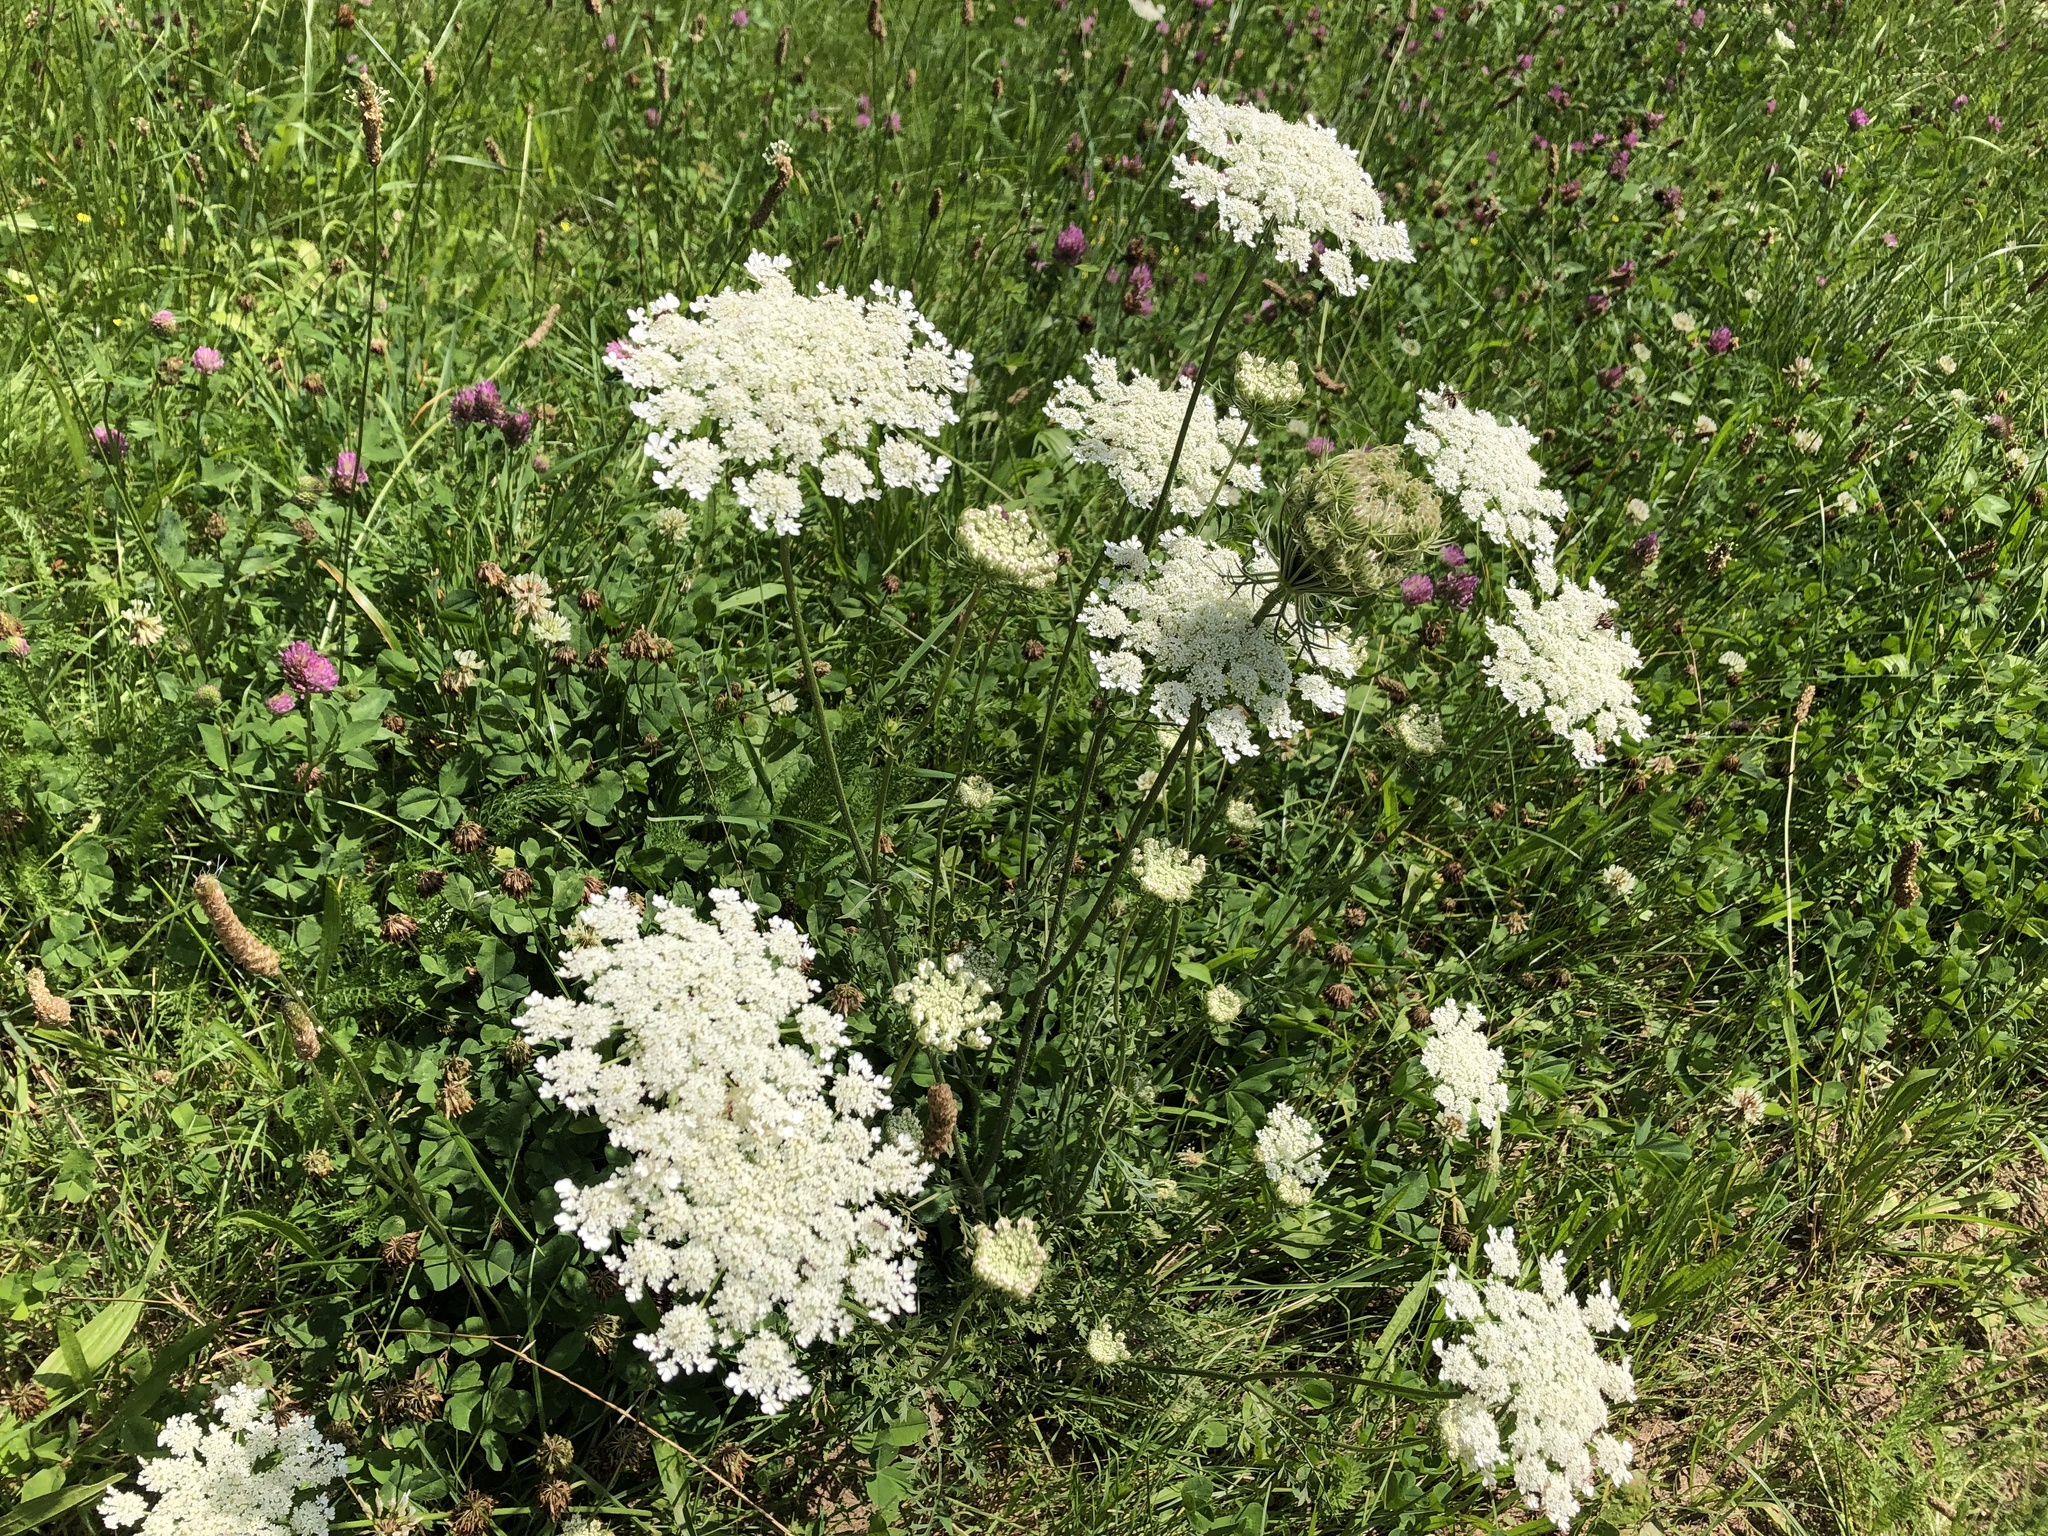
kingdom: Plantae
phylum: Tracheophyta
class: Magnoliopsida
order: Apiales
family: Apiaceae
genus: Daucus
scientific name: Daucus carota
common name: Wild carrot
